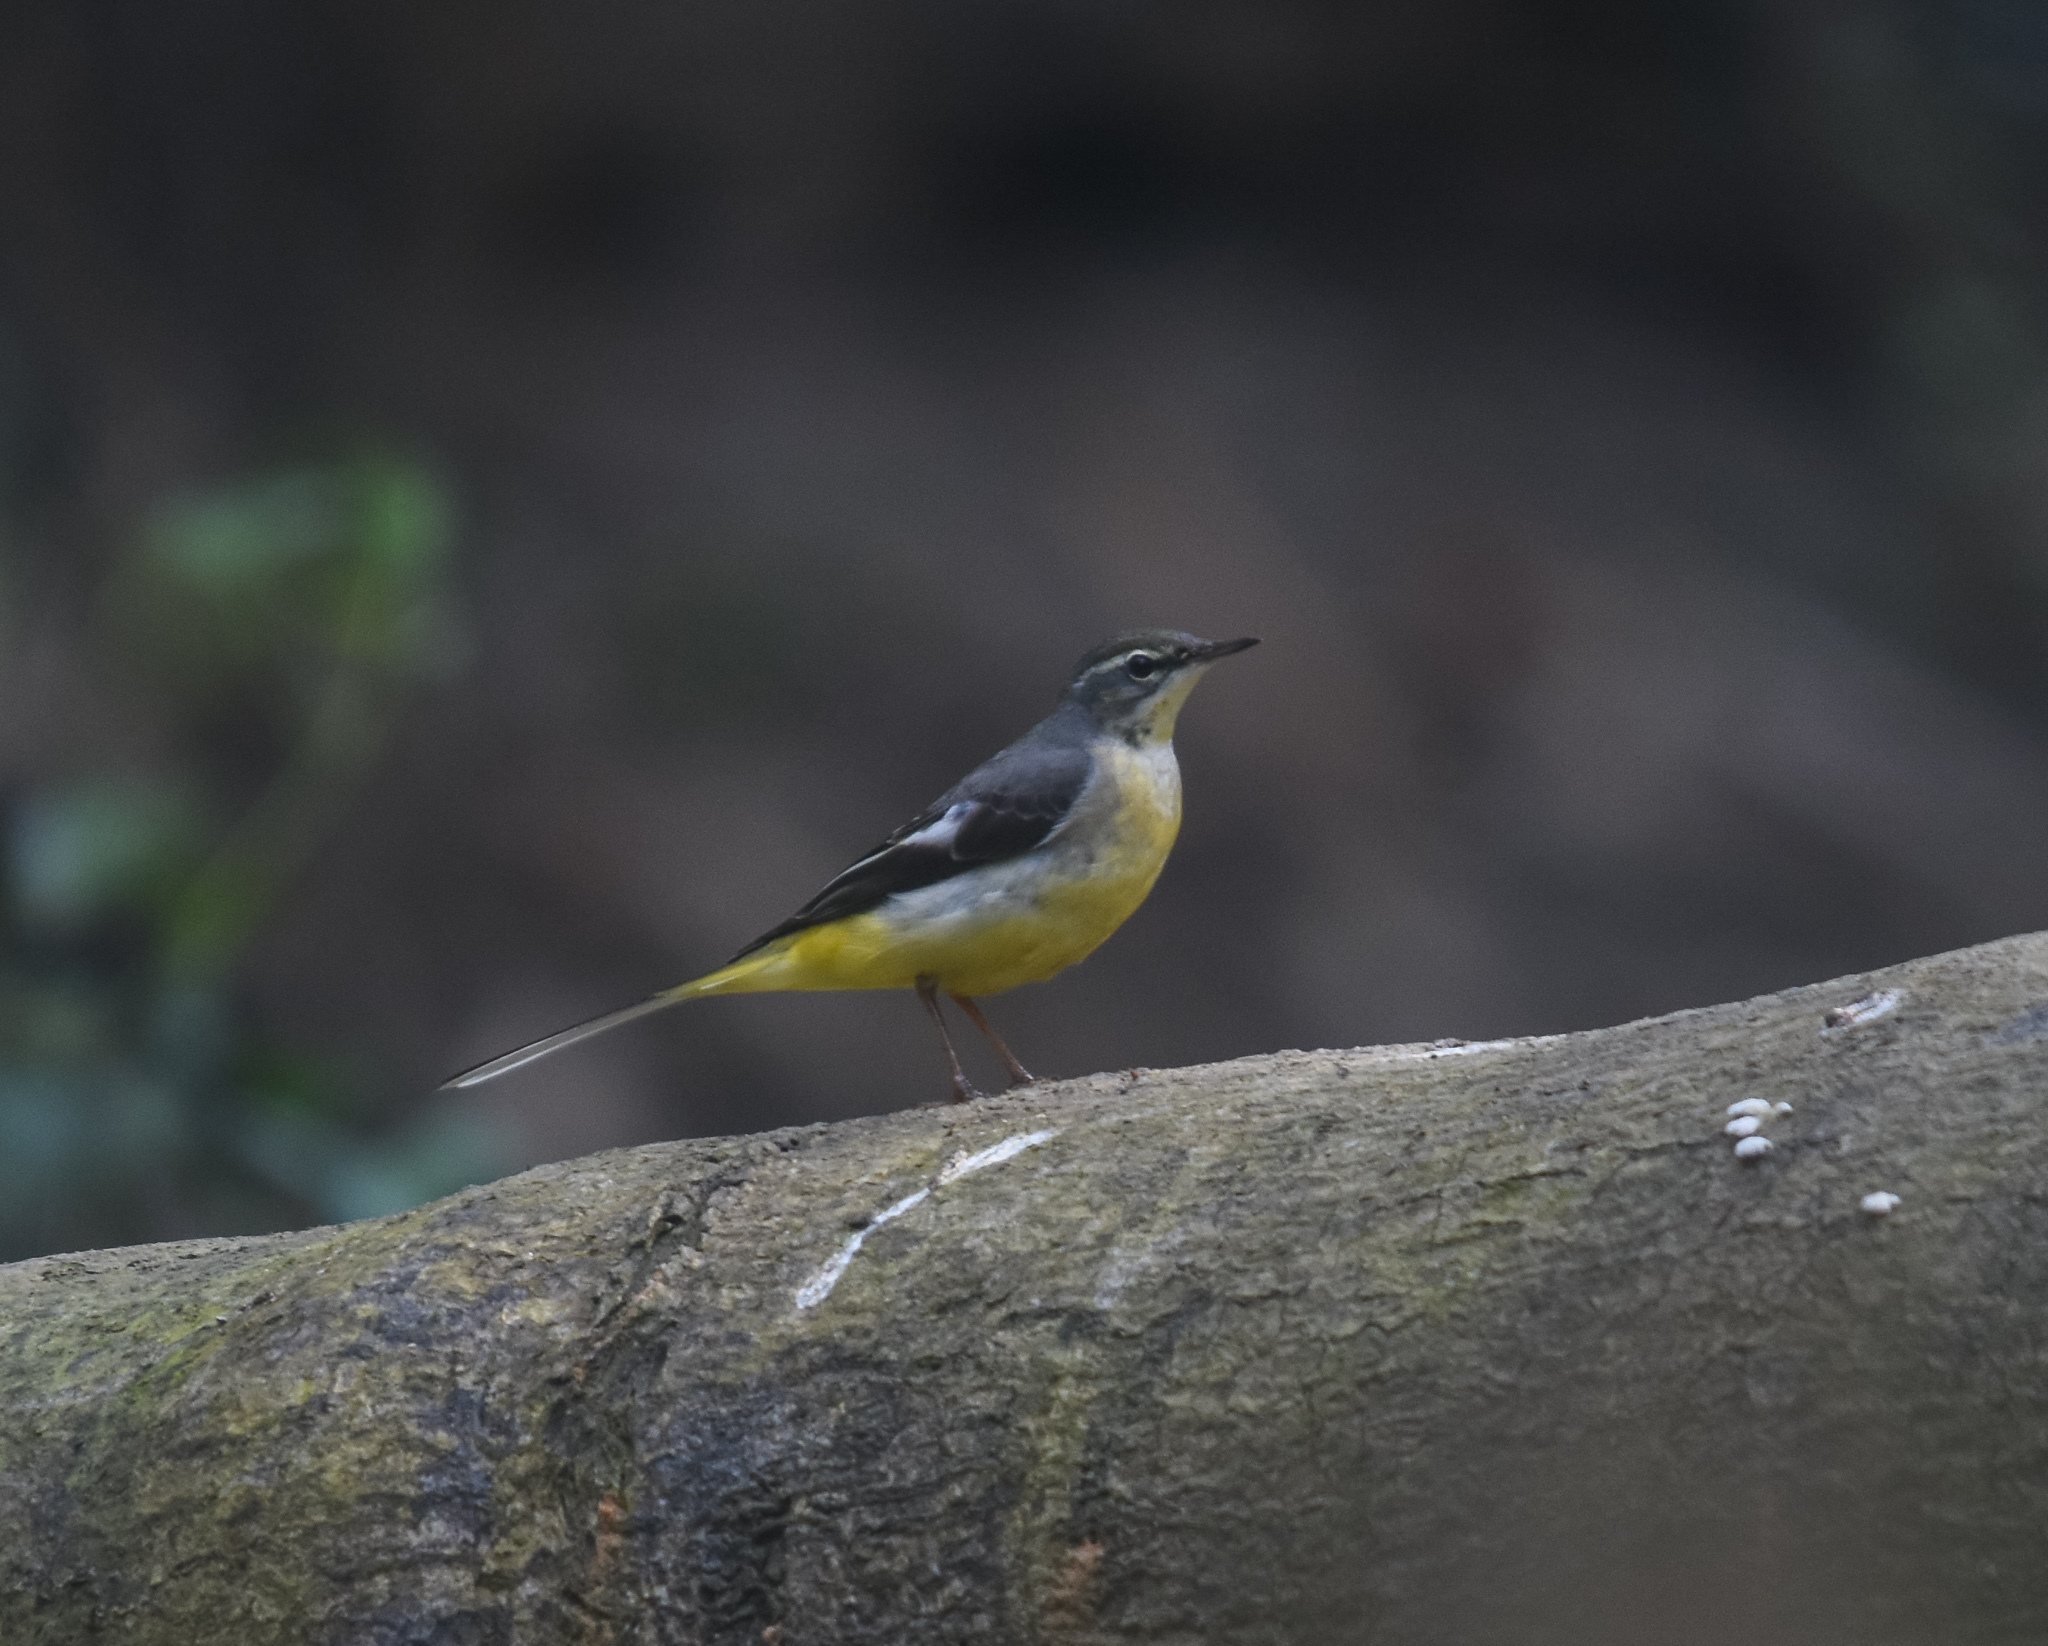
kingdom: Animalia
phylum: Chordata
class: Aves
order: Passeriformes
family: Motacillidae
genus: Motacilla
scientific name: Motacilla cinerea
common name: Grey wagtail
